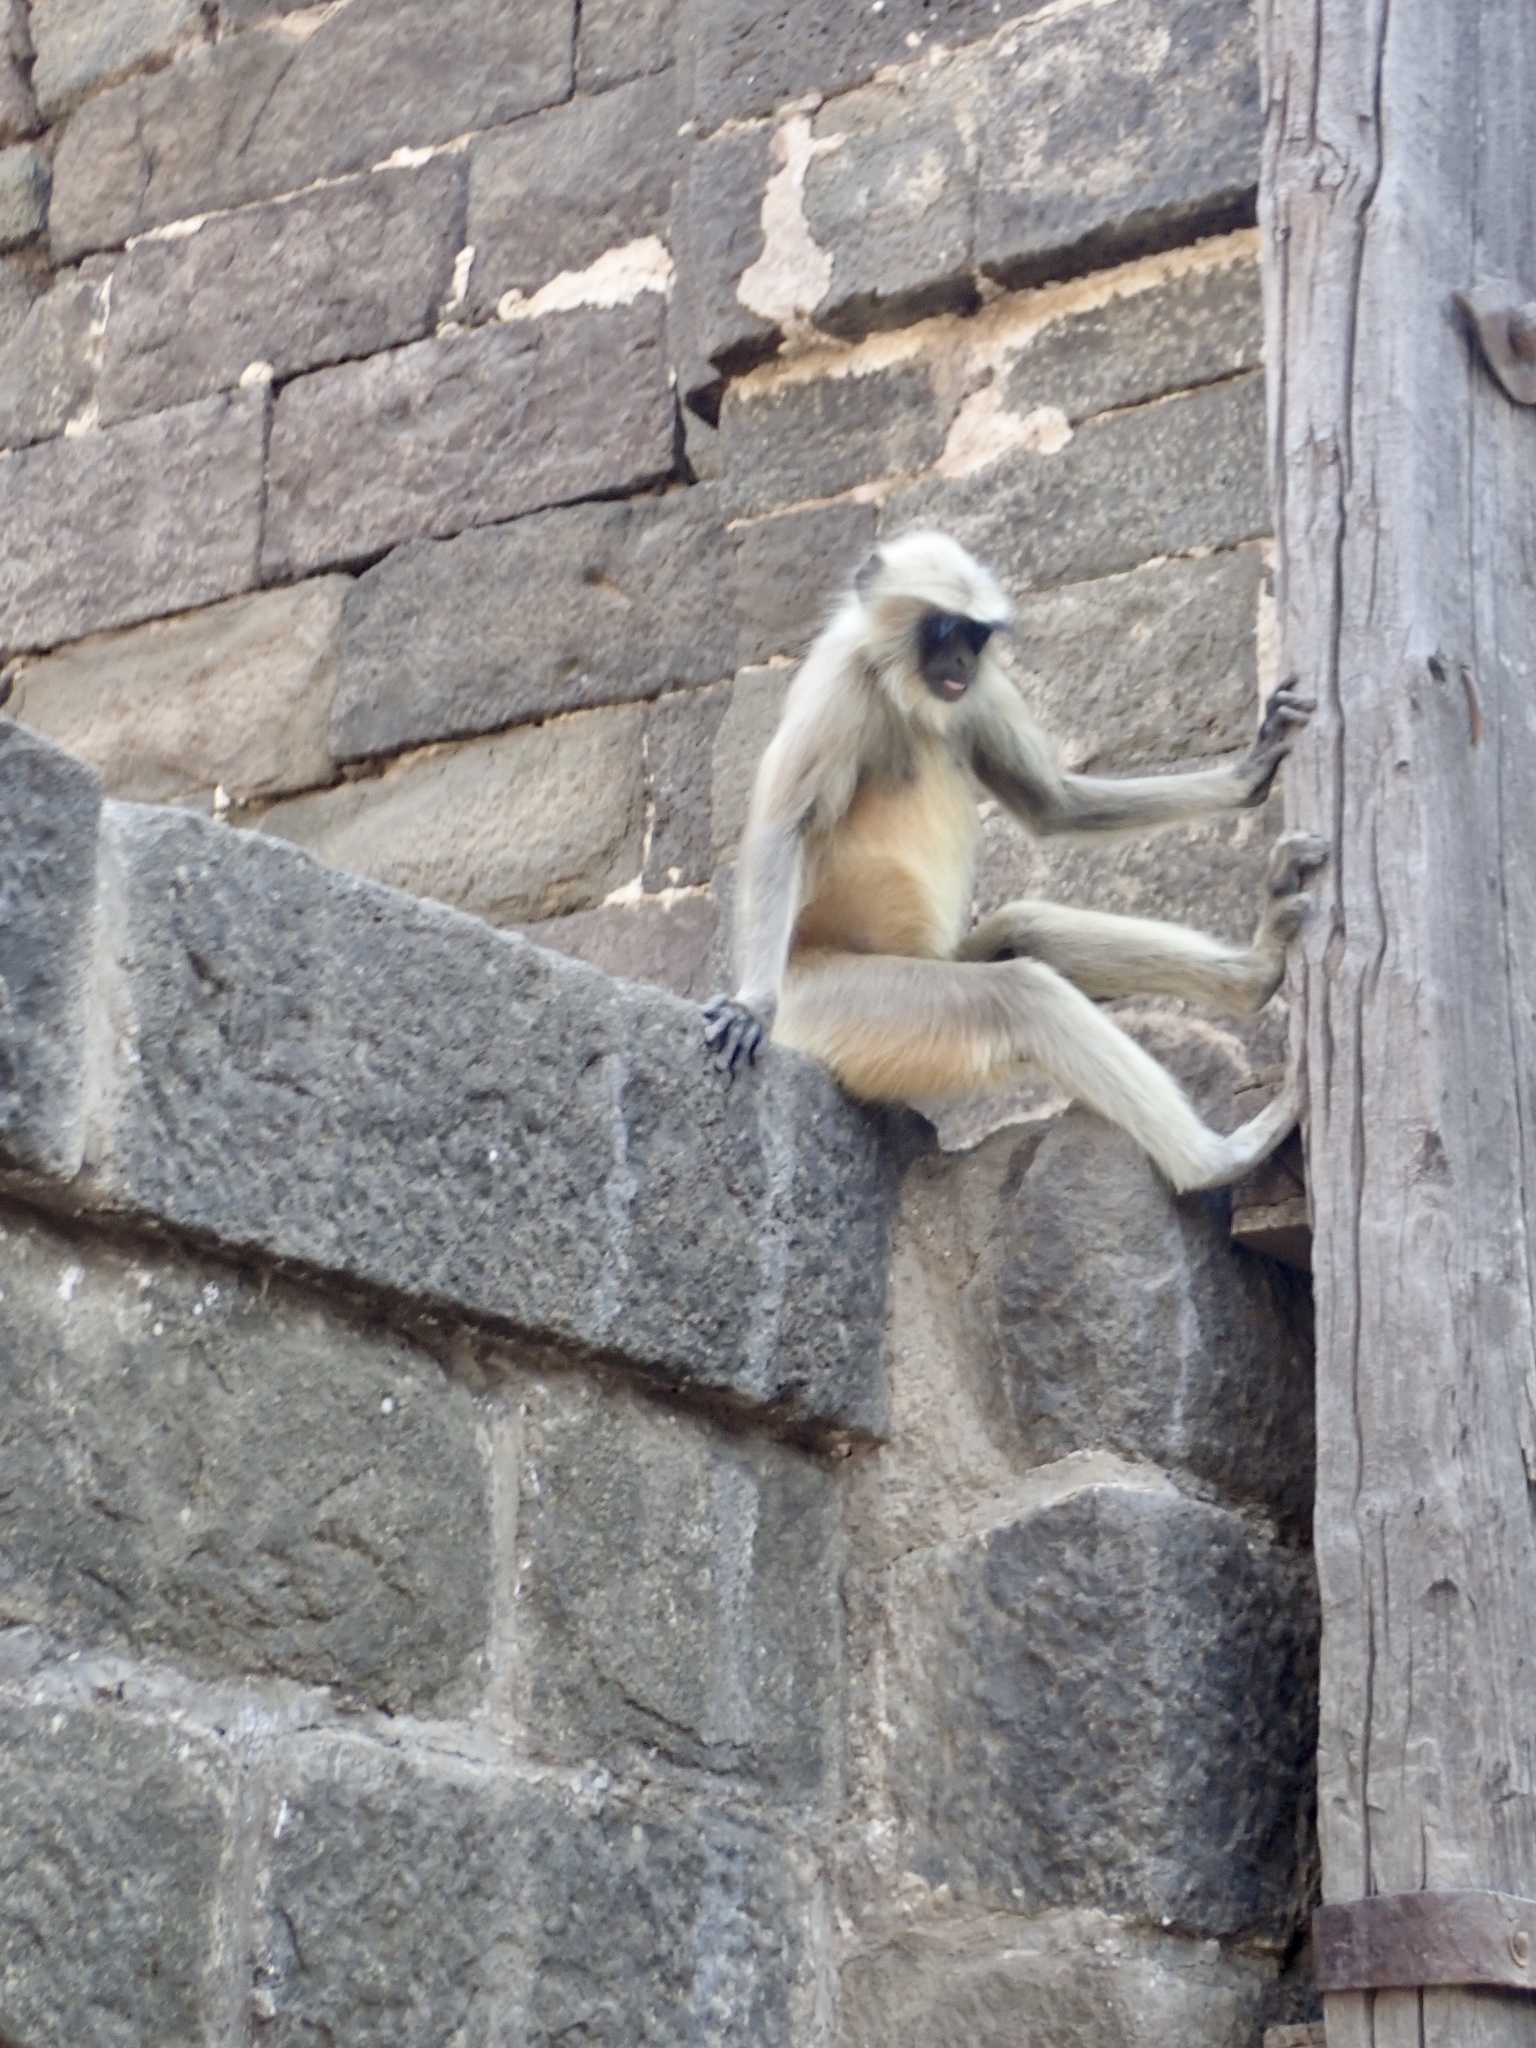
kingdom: Animalia
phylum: Chordata
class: Mammalia
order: Primates
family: Cercopithecidae
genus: Semnopithecus
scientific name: Semnopithecus hypoleucos
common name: Black-footed gray langur
